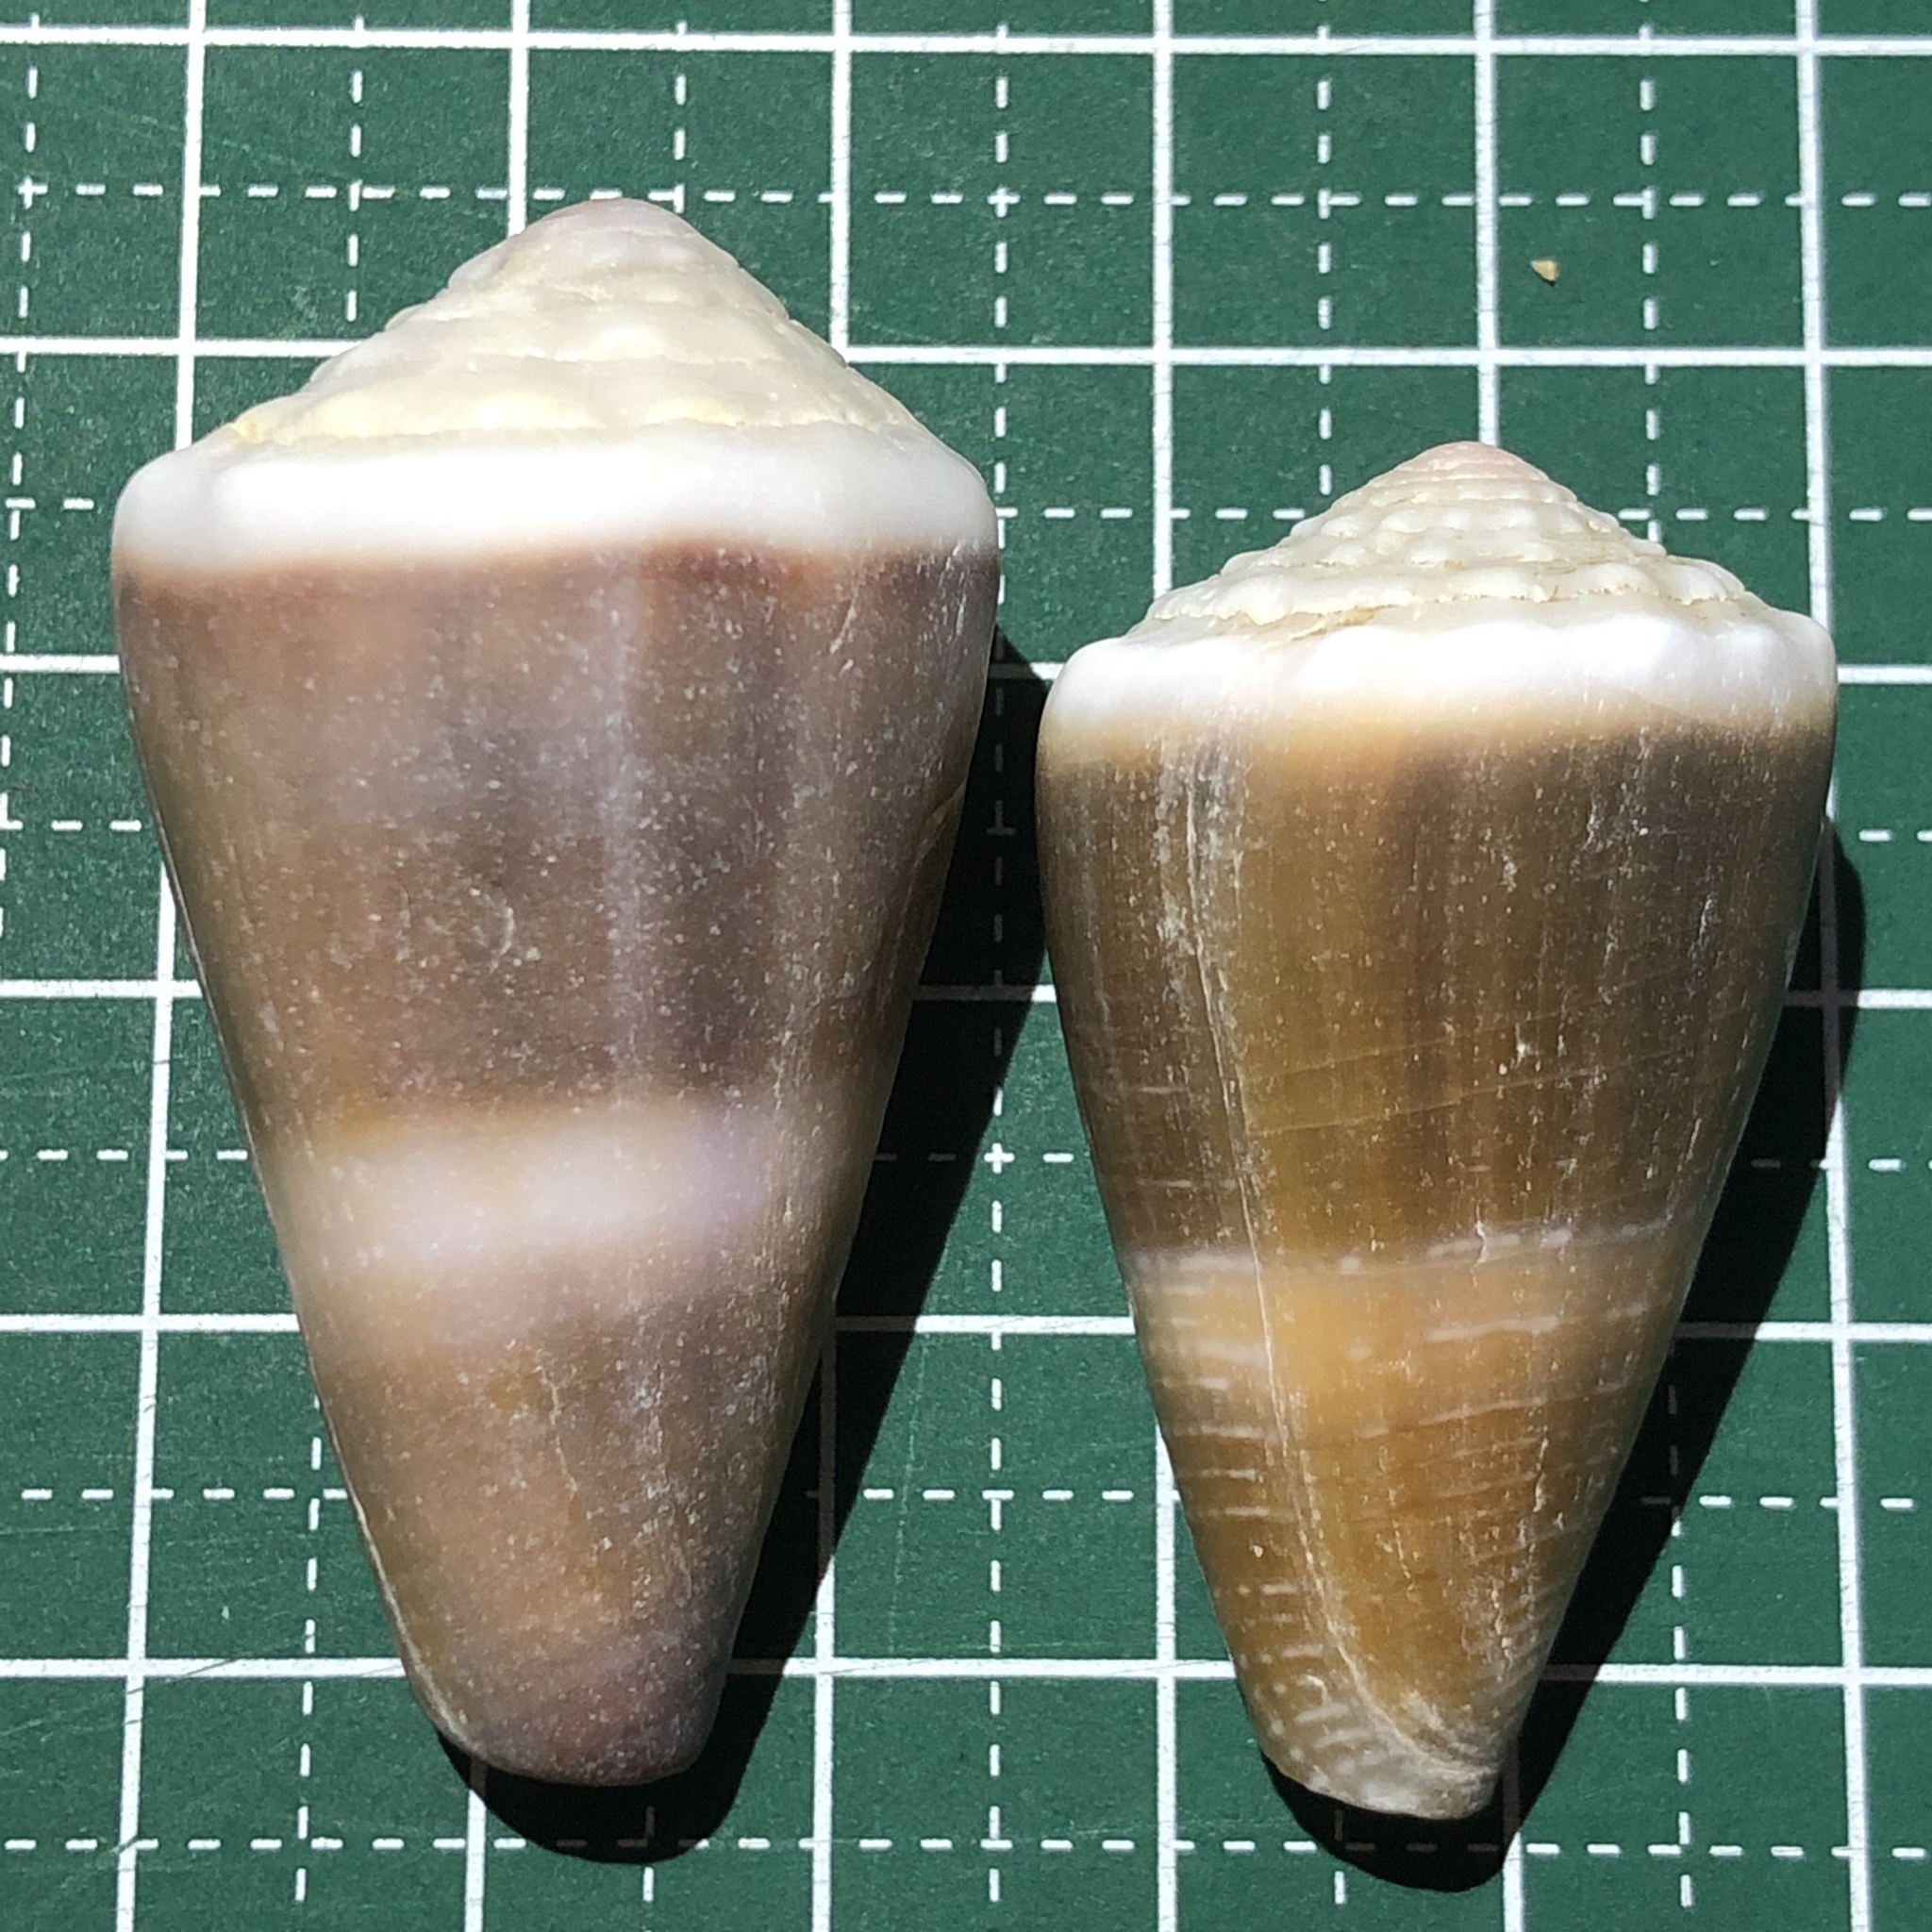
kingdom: Animalia
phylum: Mollusca
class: Gastropoda
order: Neogastropoda
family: Conidae
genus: Conus
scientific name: Conus lividus
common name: Livid cone
